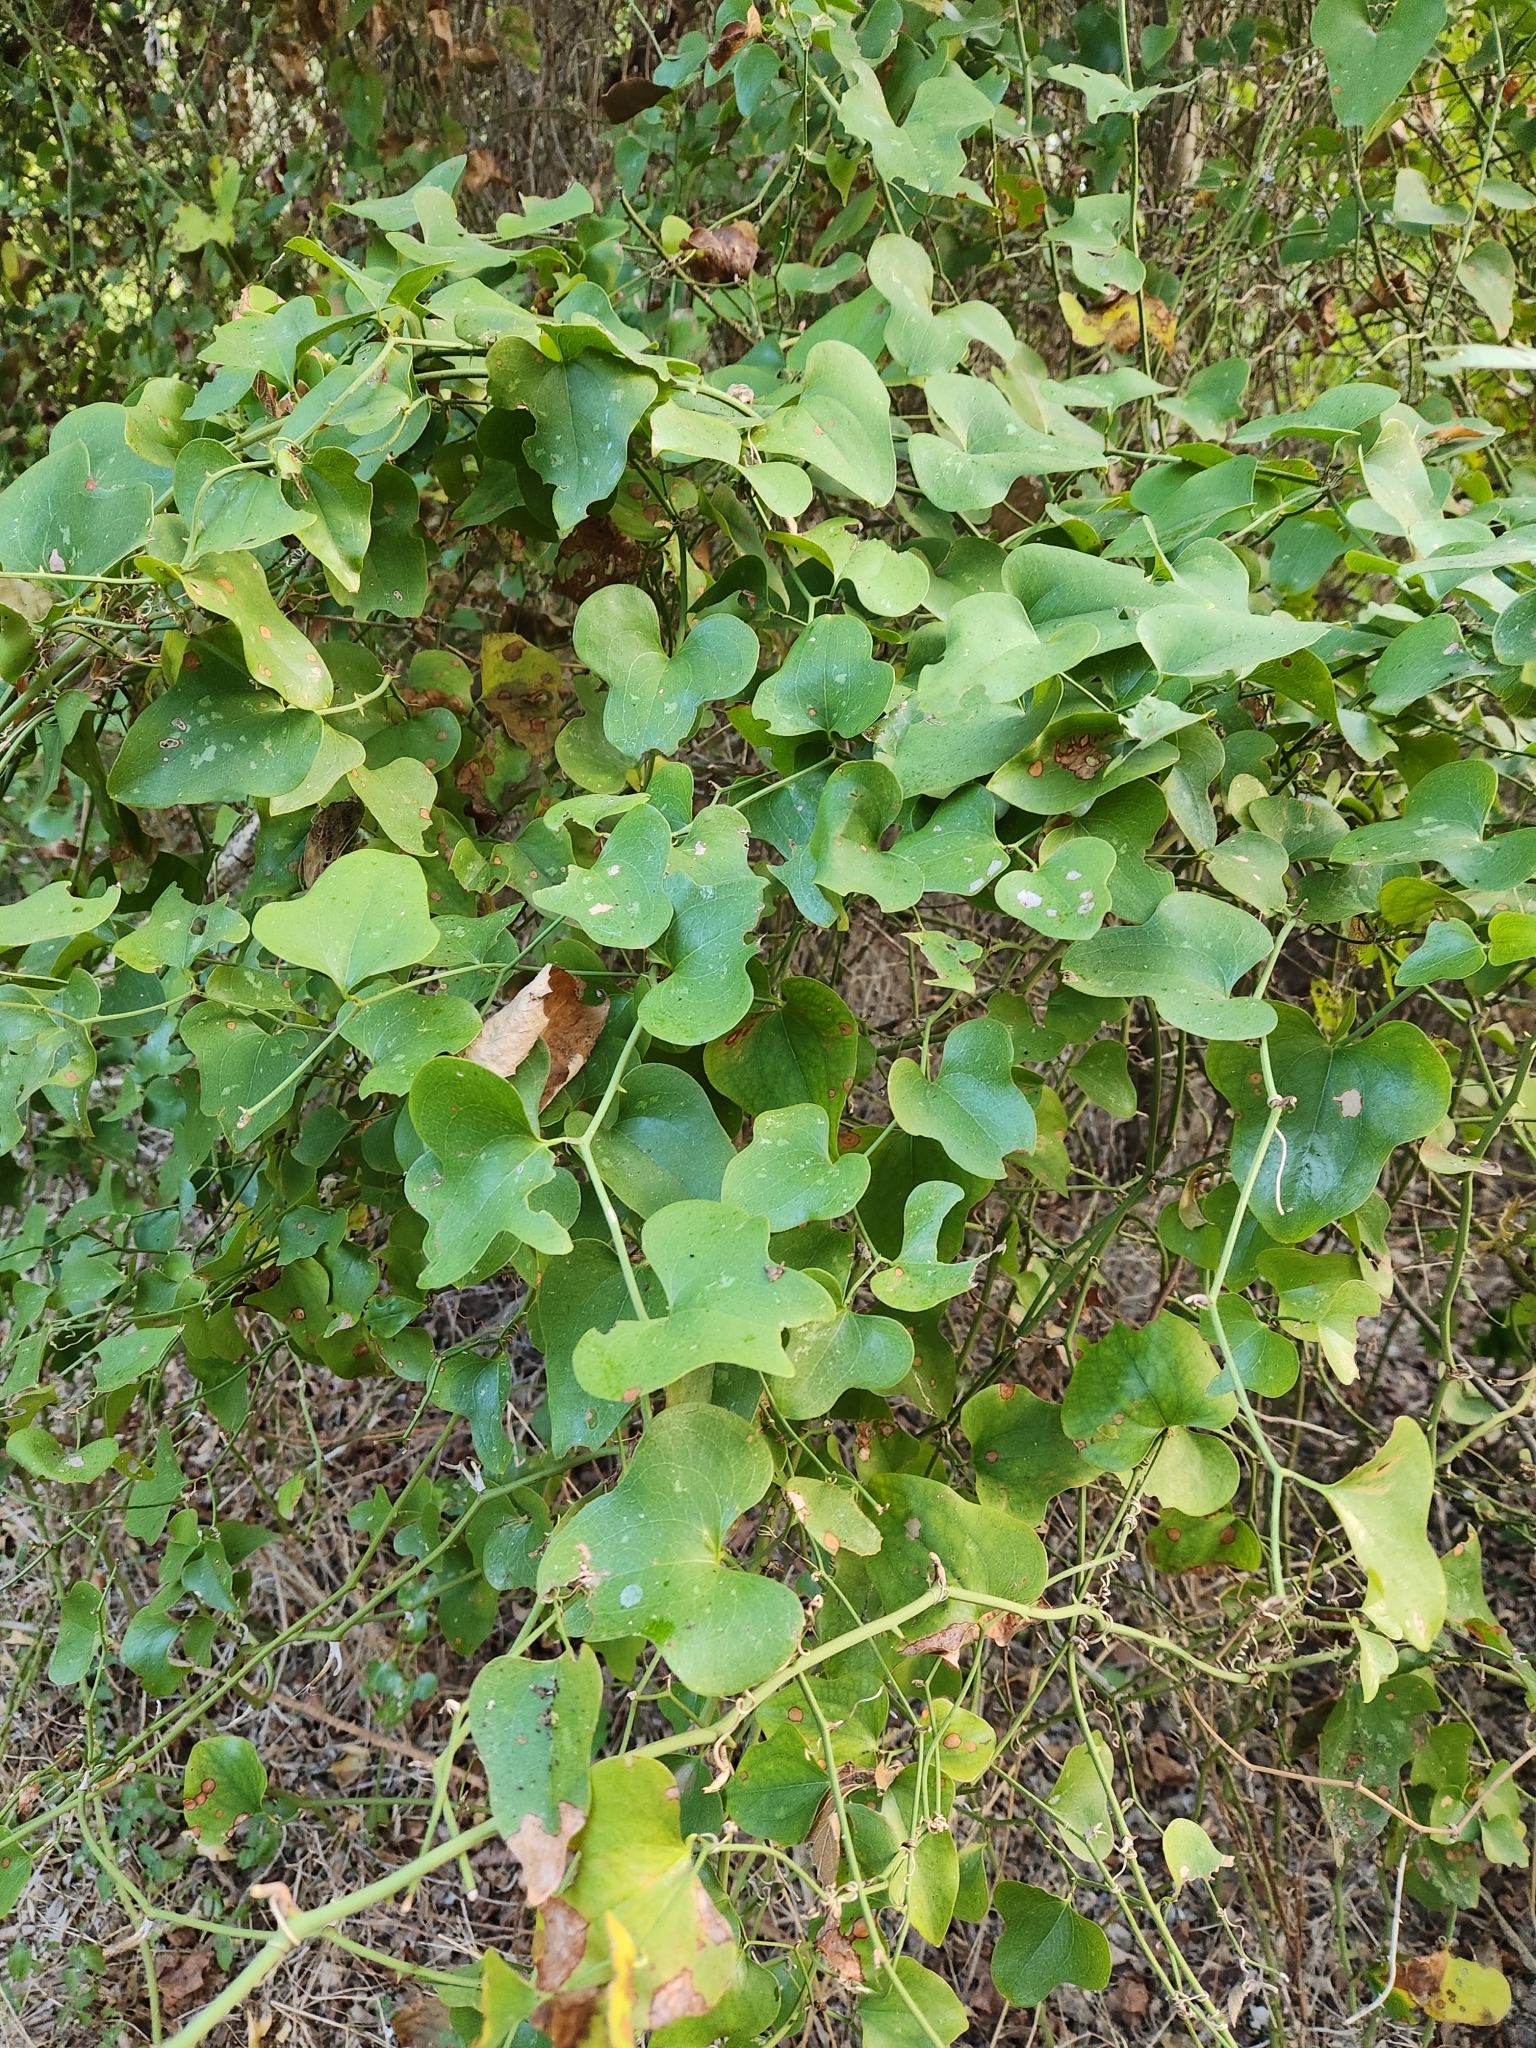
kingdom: Plantae
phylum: Tracheophyta
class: Liliopsida
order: Liliales
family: Smilacaceae
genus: Smilax
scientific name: Smilax bona-nox
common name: Catbrier
